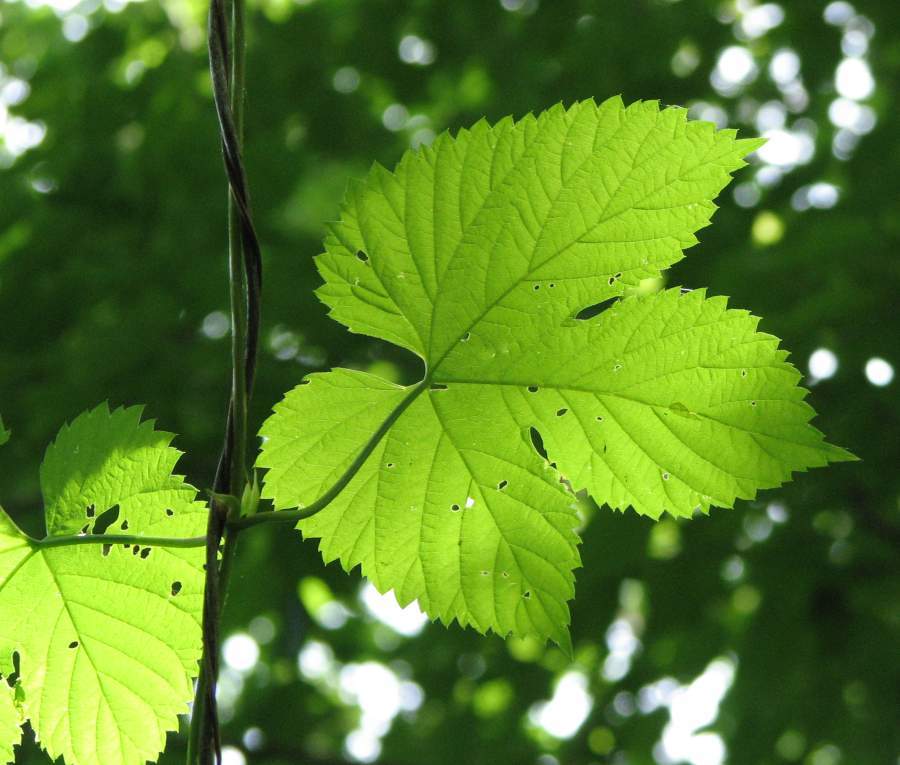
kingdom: Plantae
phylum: Tracheophyta
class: Magnoliopsida
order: Rosales
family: Cannabaceae
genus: Humulus
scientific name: Humulus lupulus
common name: Hop
